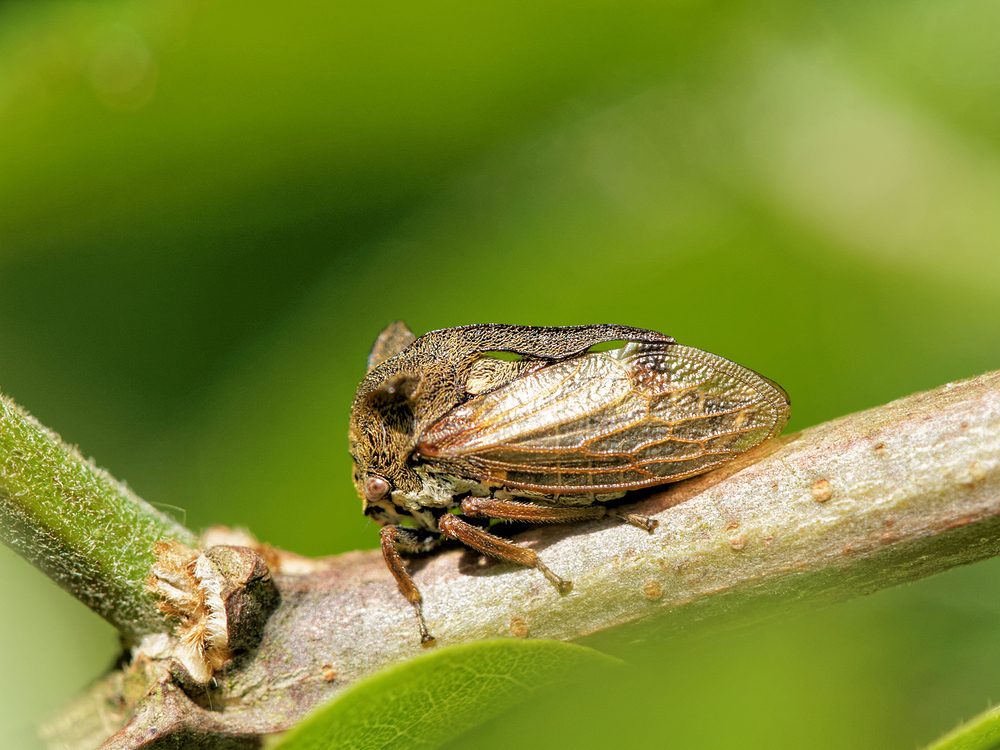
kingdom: Animalia
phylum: Arthropoda
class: Insecta
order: Hemiptera
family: Membracidae
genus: Centrotus
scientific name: Centrotus cornuta
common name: Treehopper
